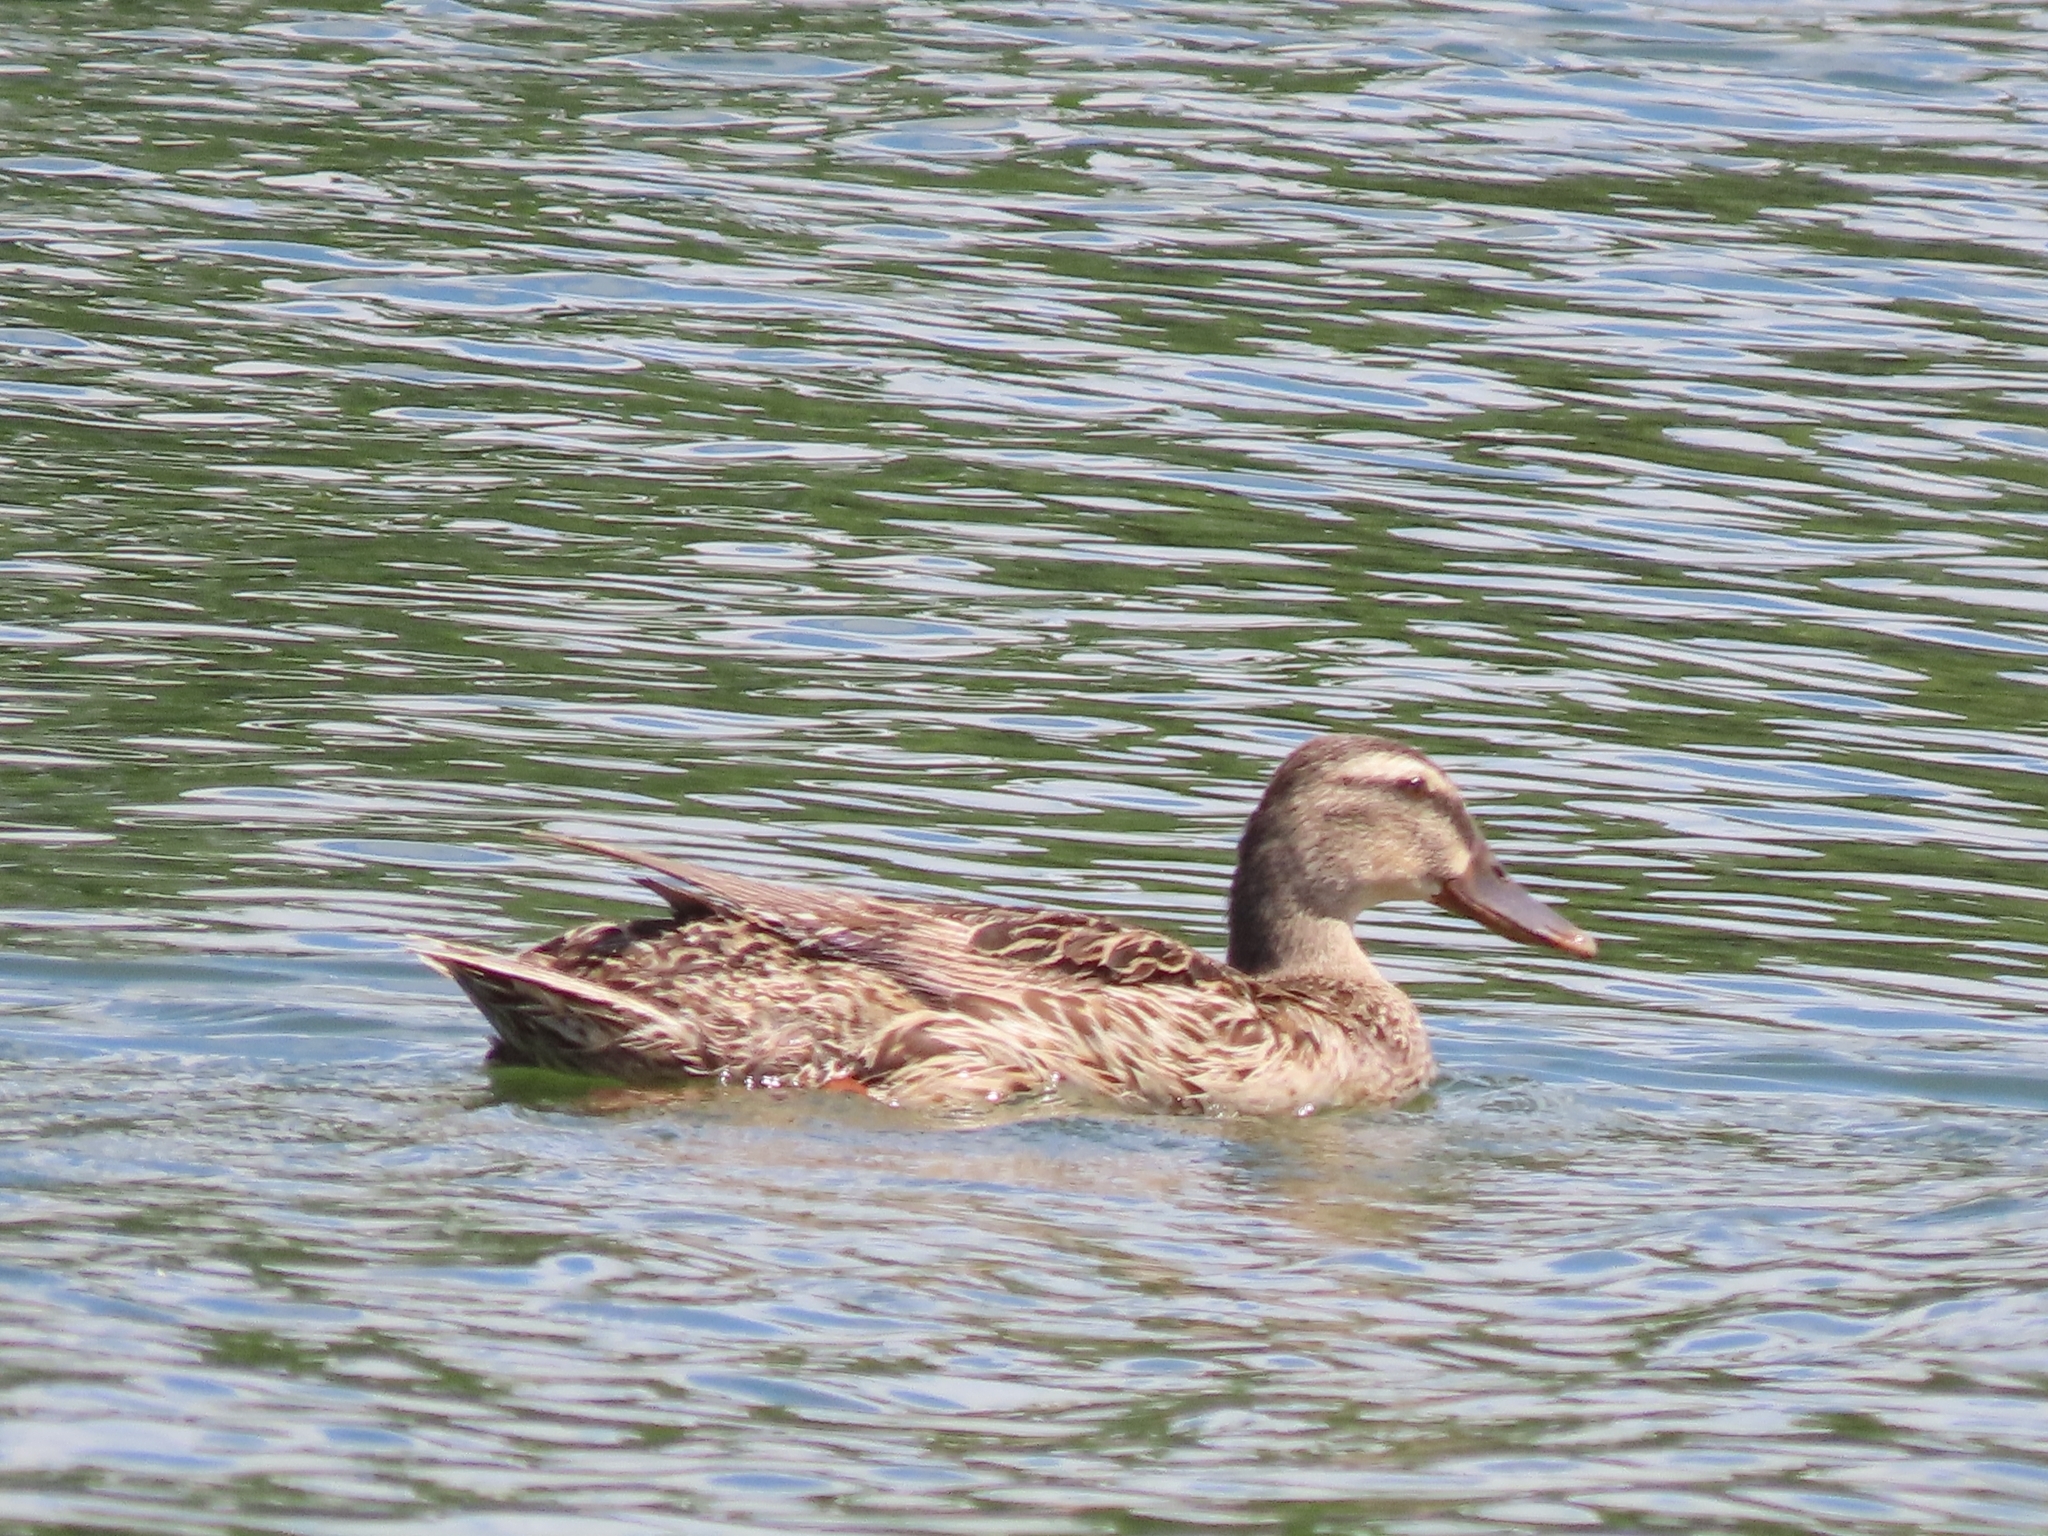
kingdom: Animalia
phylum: Chordata
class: Aves
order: Anseriformes
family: Anatidae
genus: Anas
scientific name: Anas platyrhynchos
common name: Mallard
